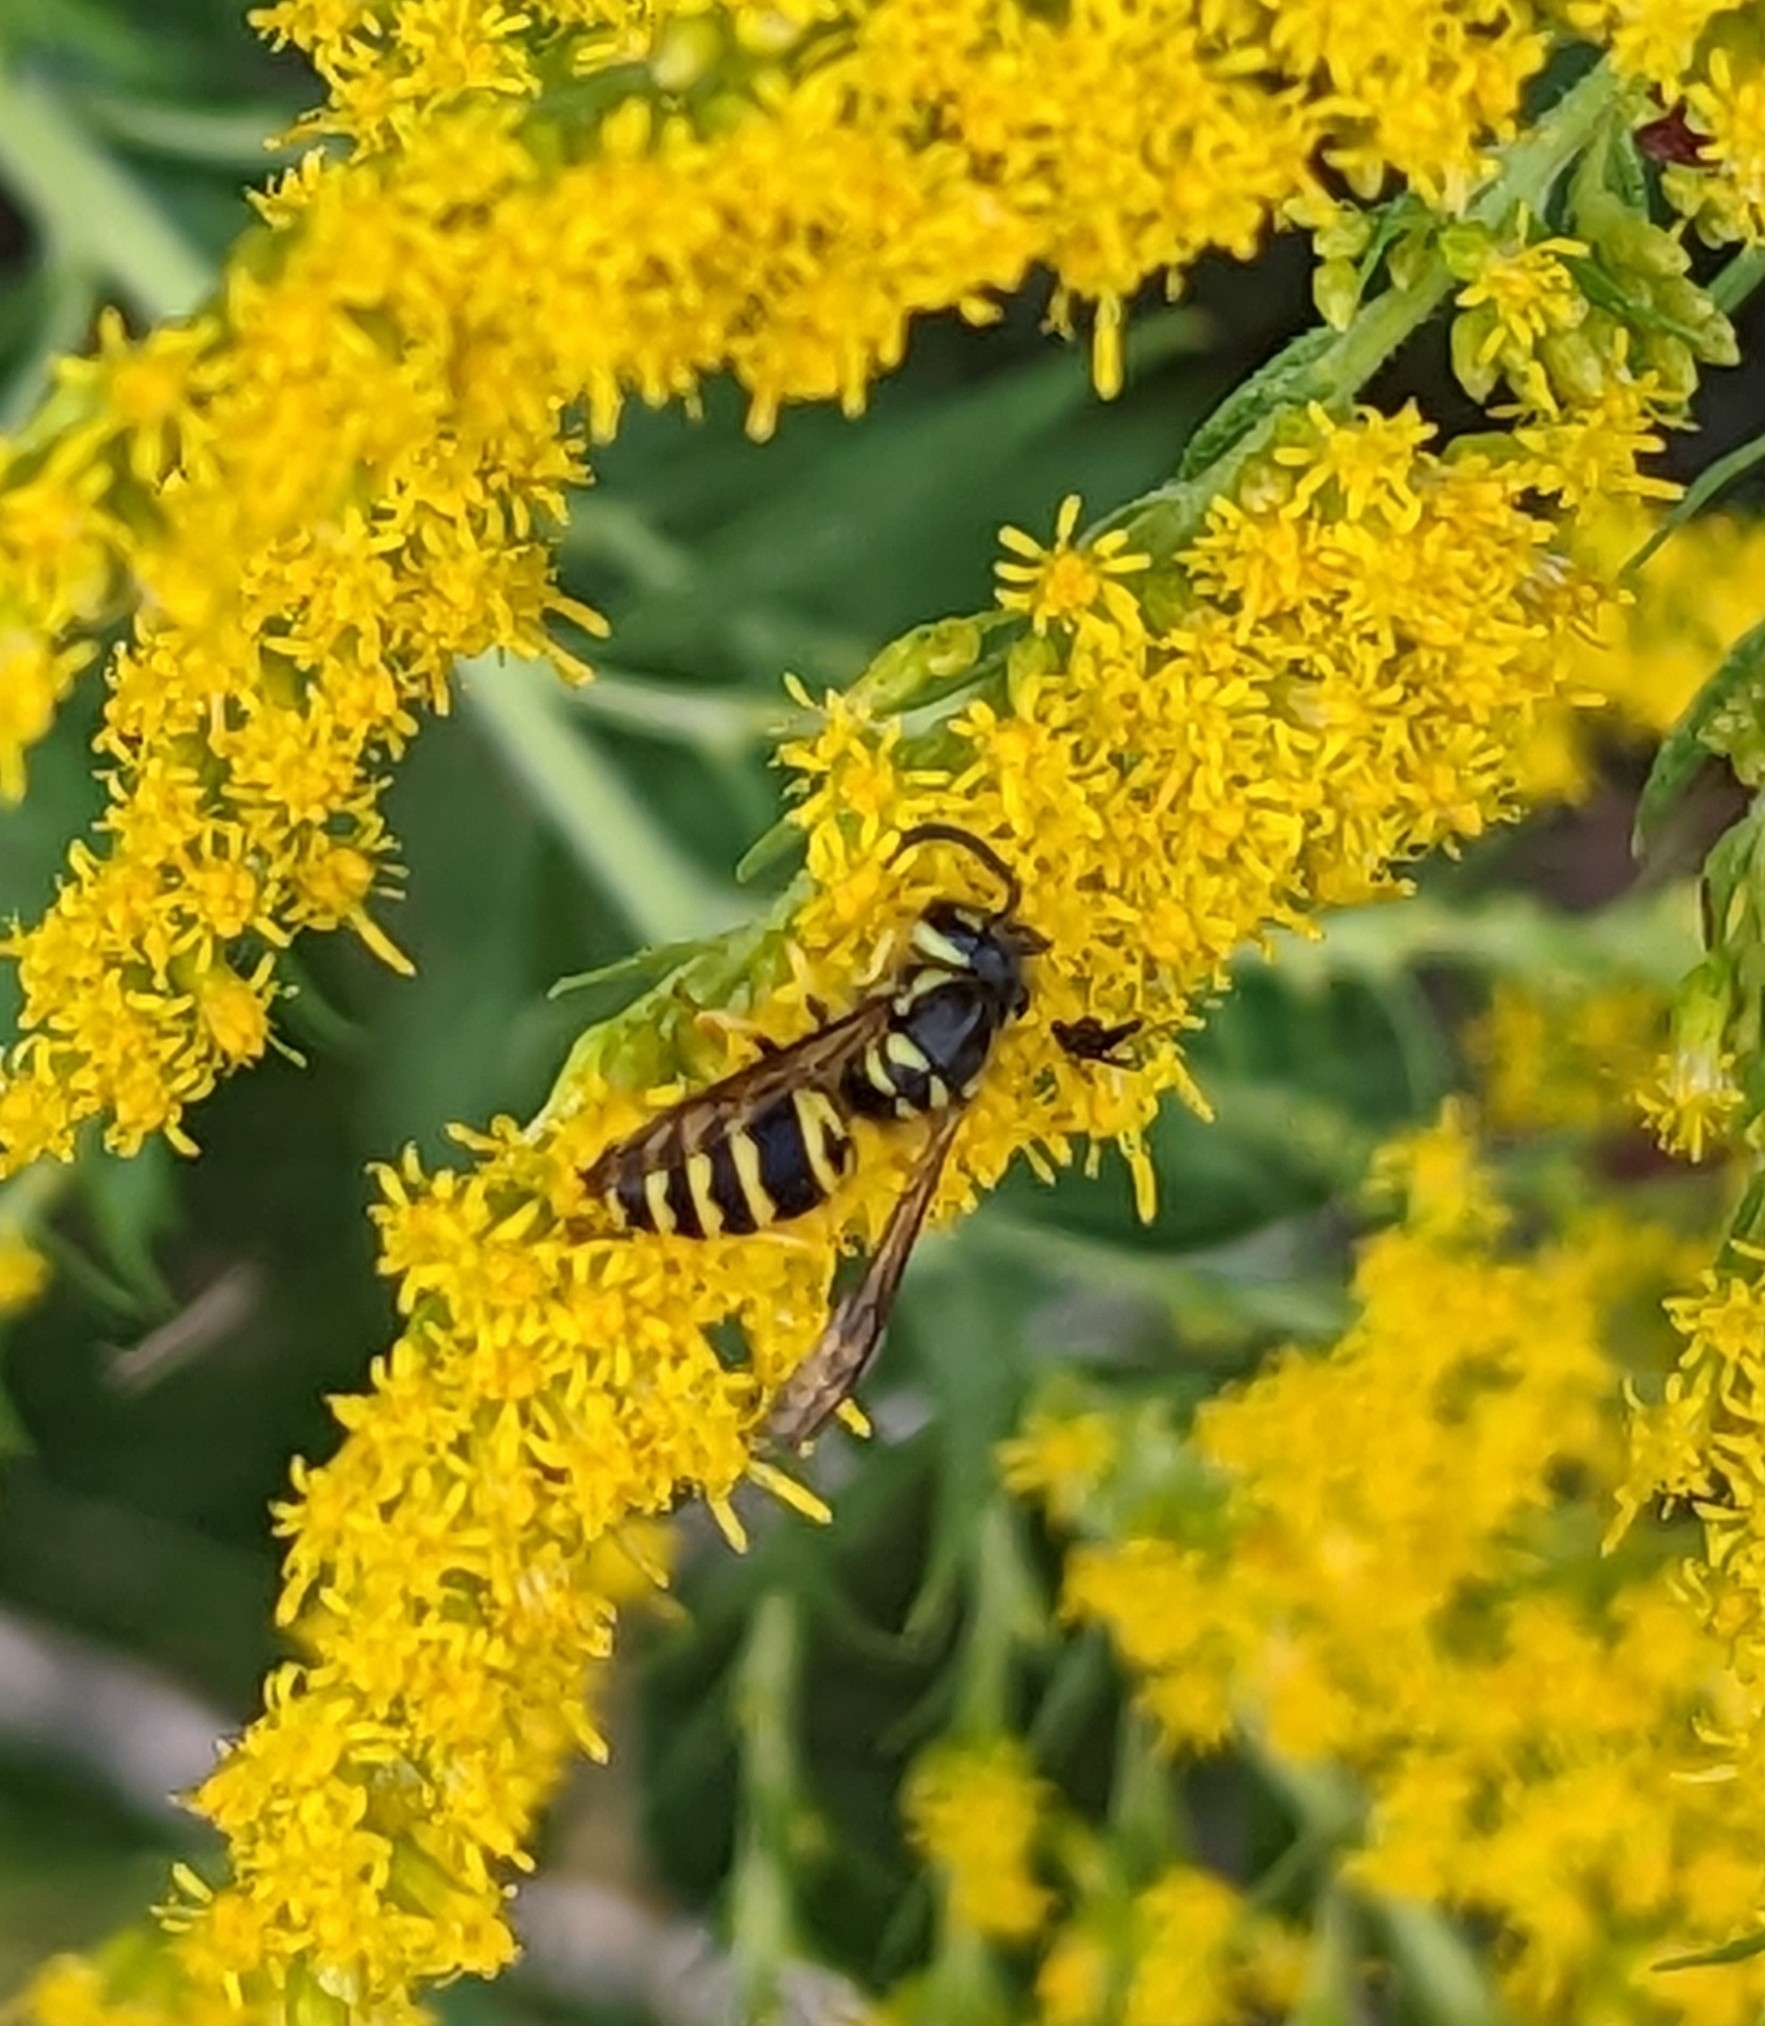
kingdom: Animalia
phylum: Arthropoda
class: Insecta
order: Hymenoptera
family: Vespidae
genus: Vespula
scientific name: Vespula maculifrons
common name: Eastern yellowjacket
